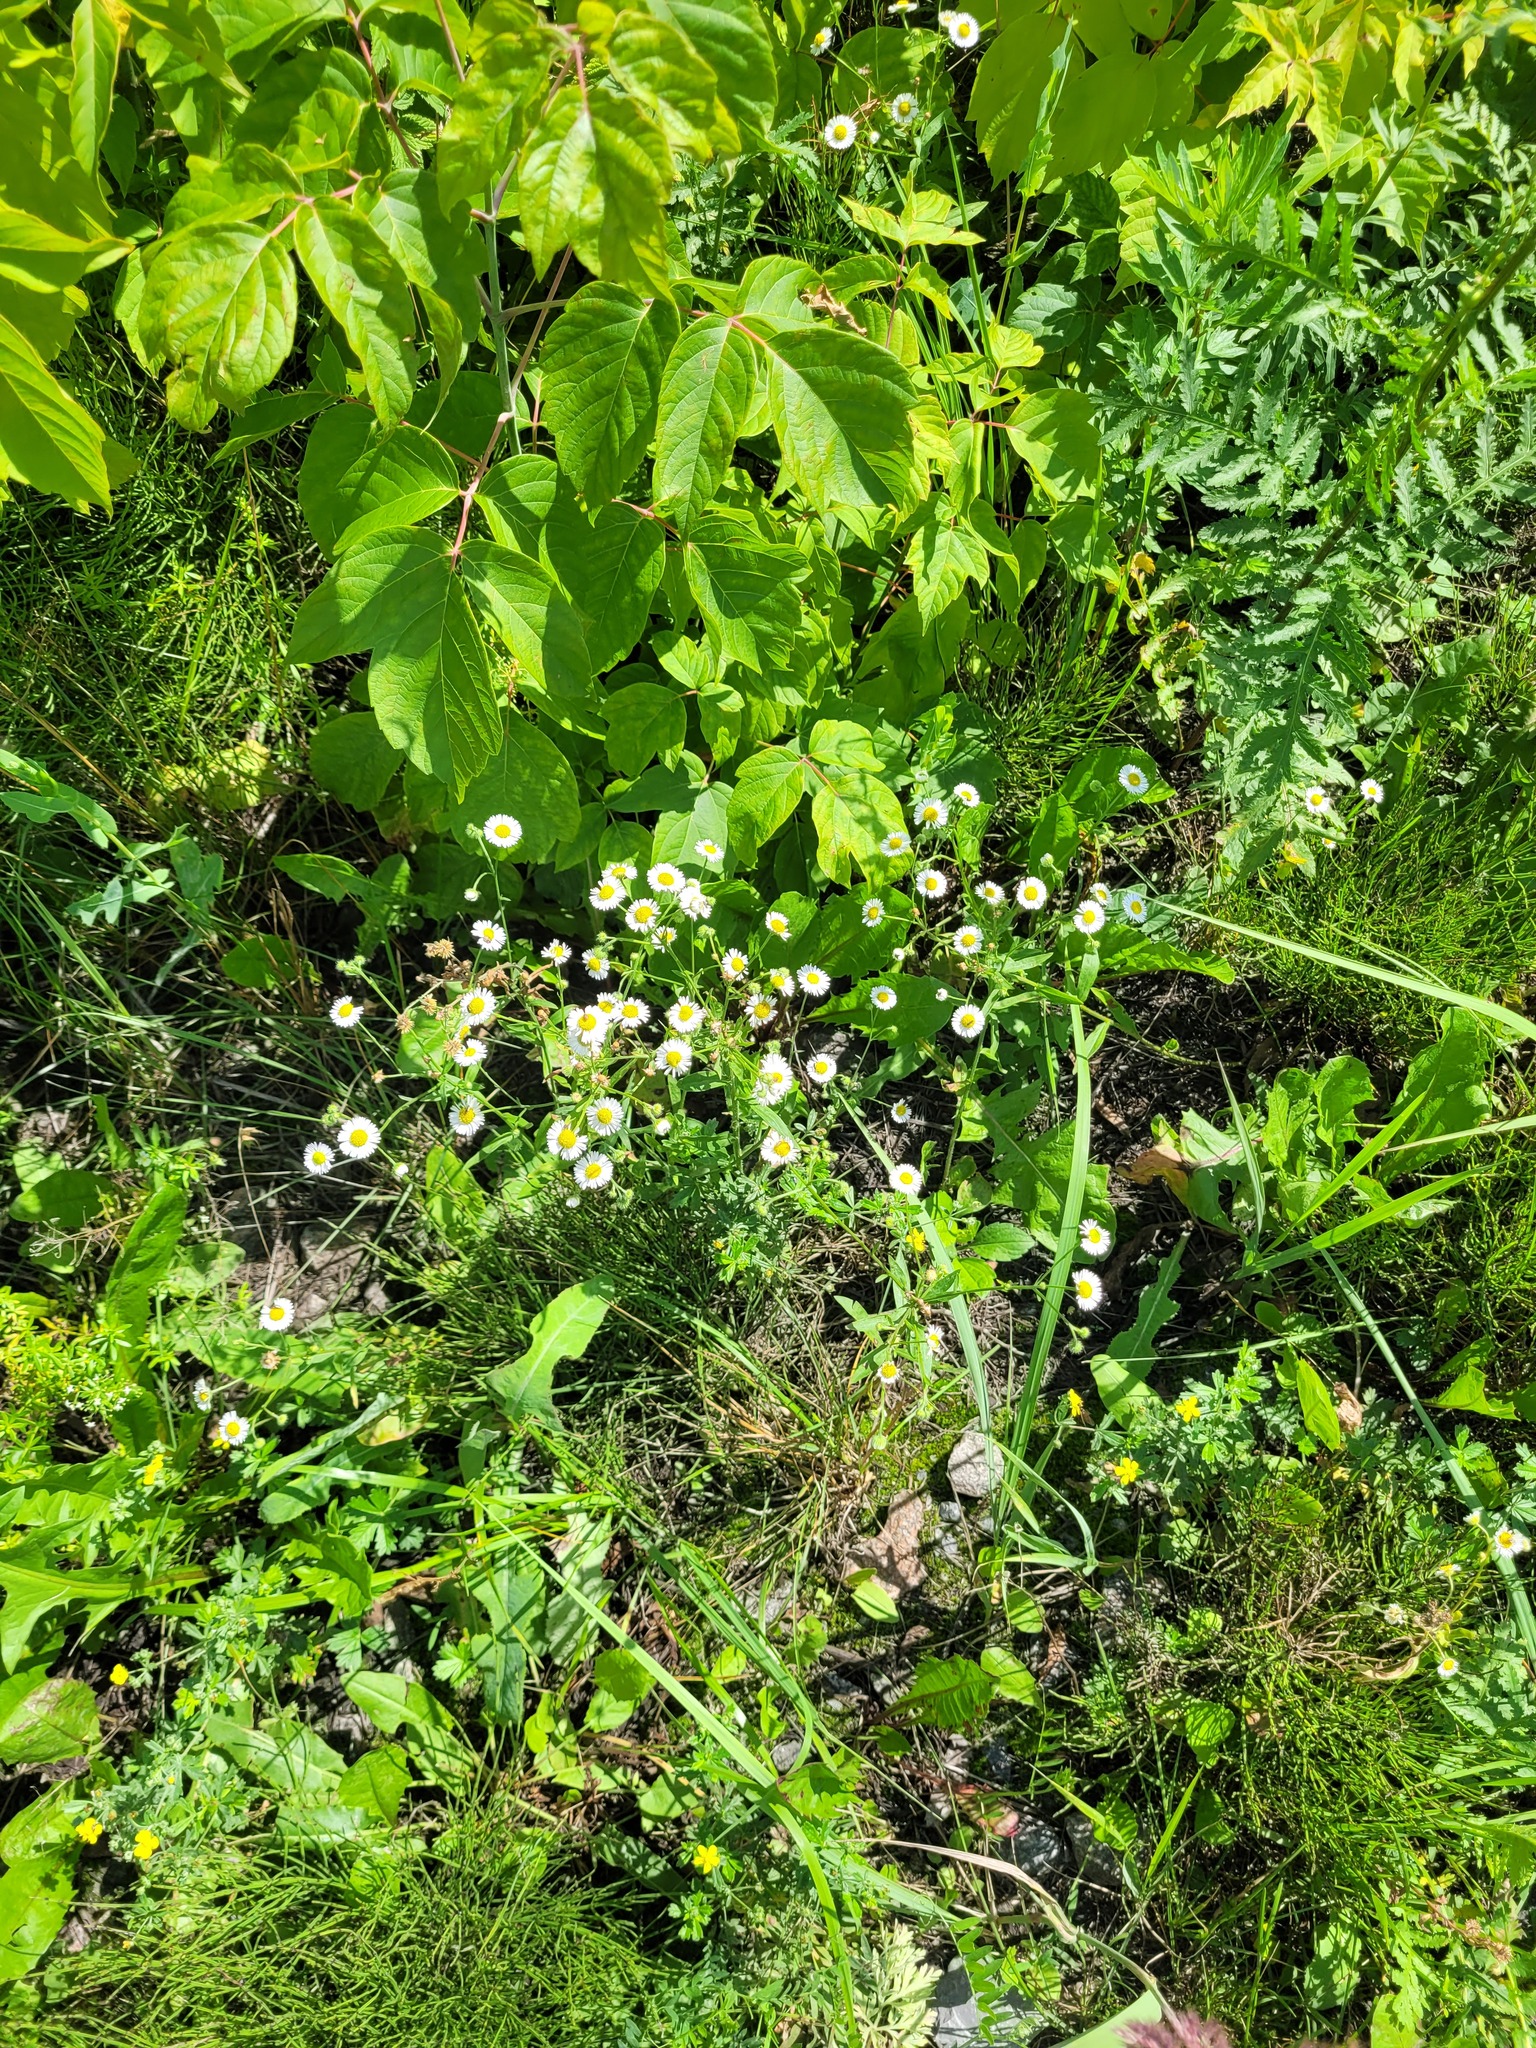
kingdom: Plantae
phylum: Tracheophyta
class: Magnoliopsida
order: Asterales
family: Asteraceae
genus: Erigeron
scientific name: Erigeron annuus
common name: Tall fleabane
